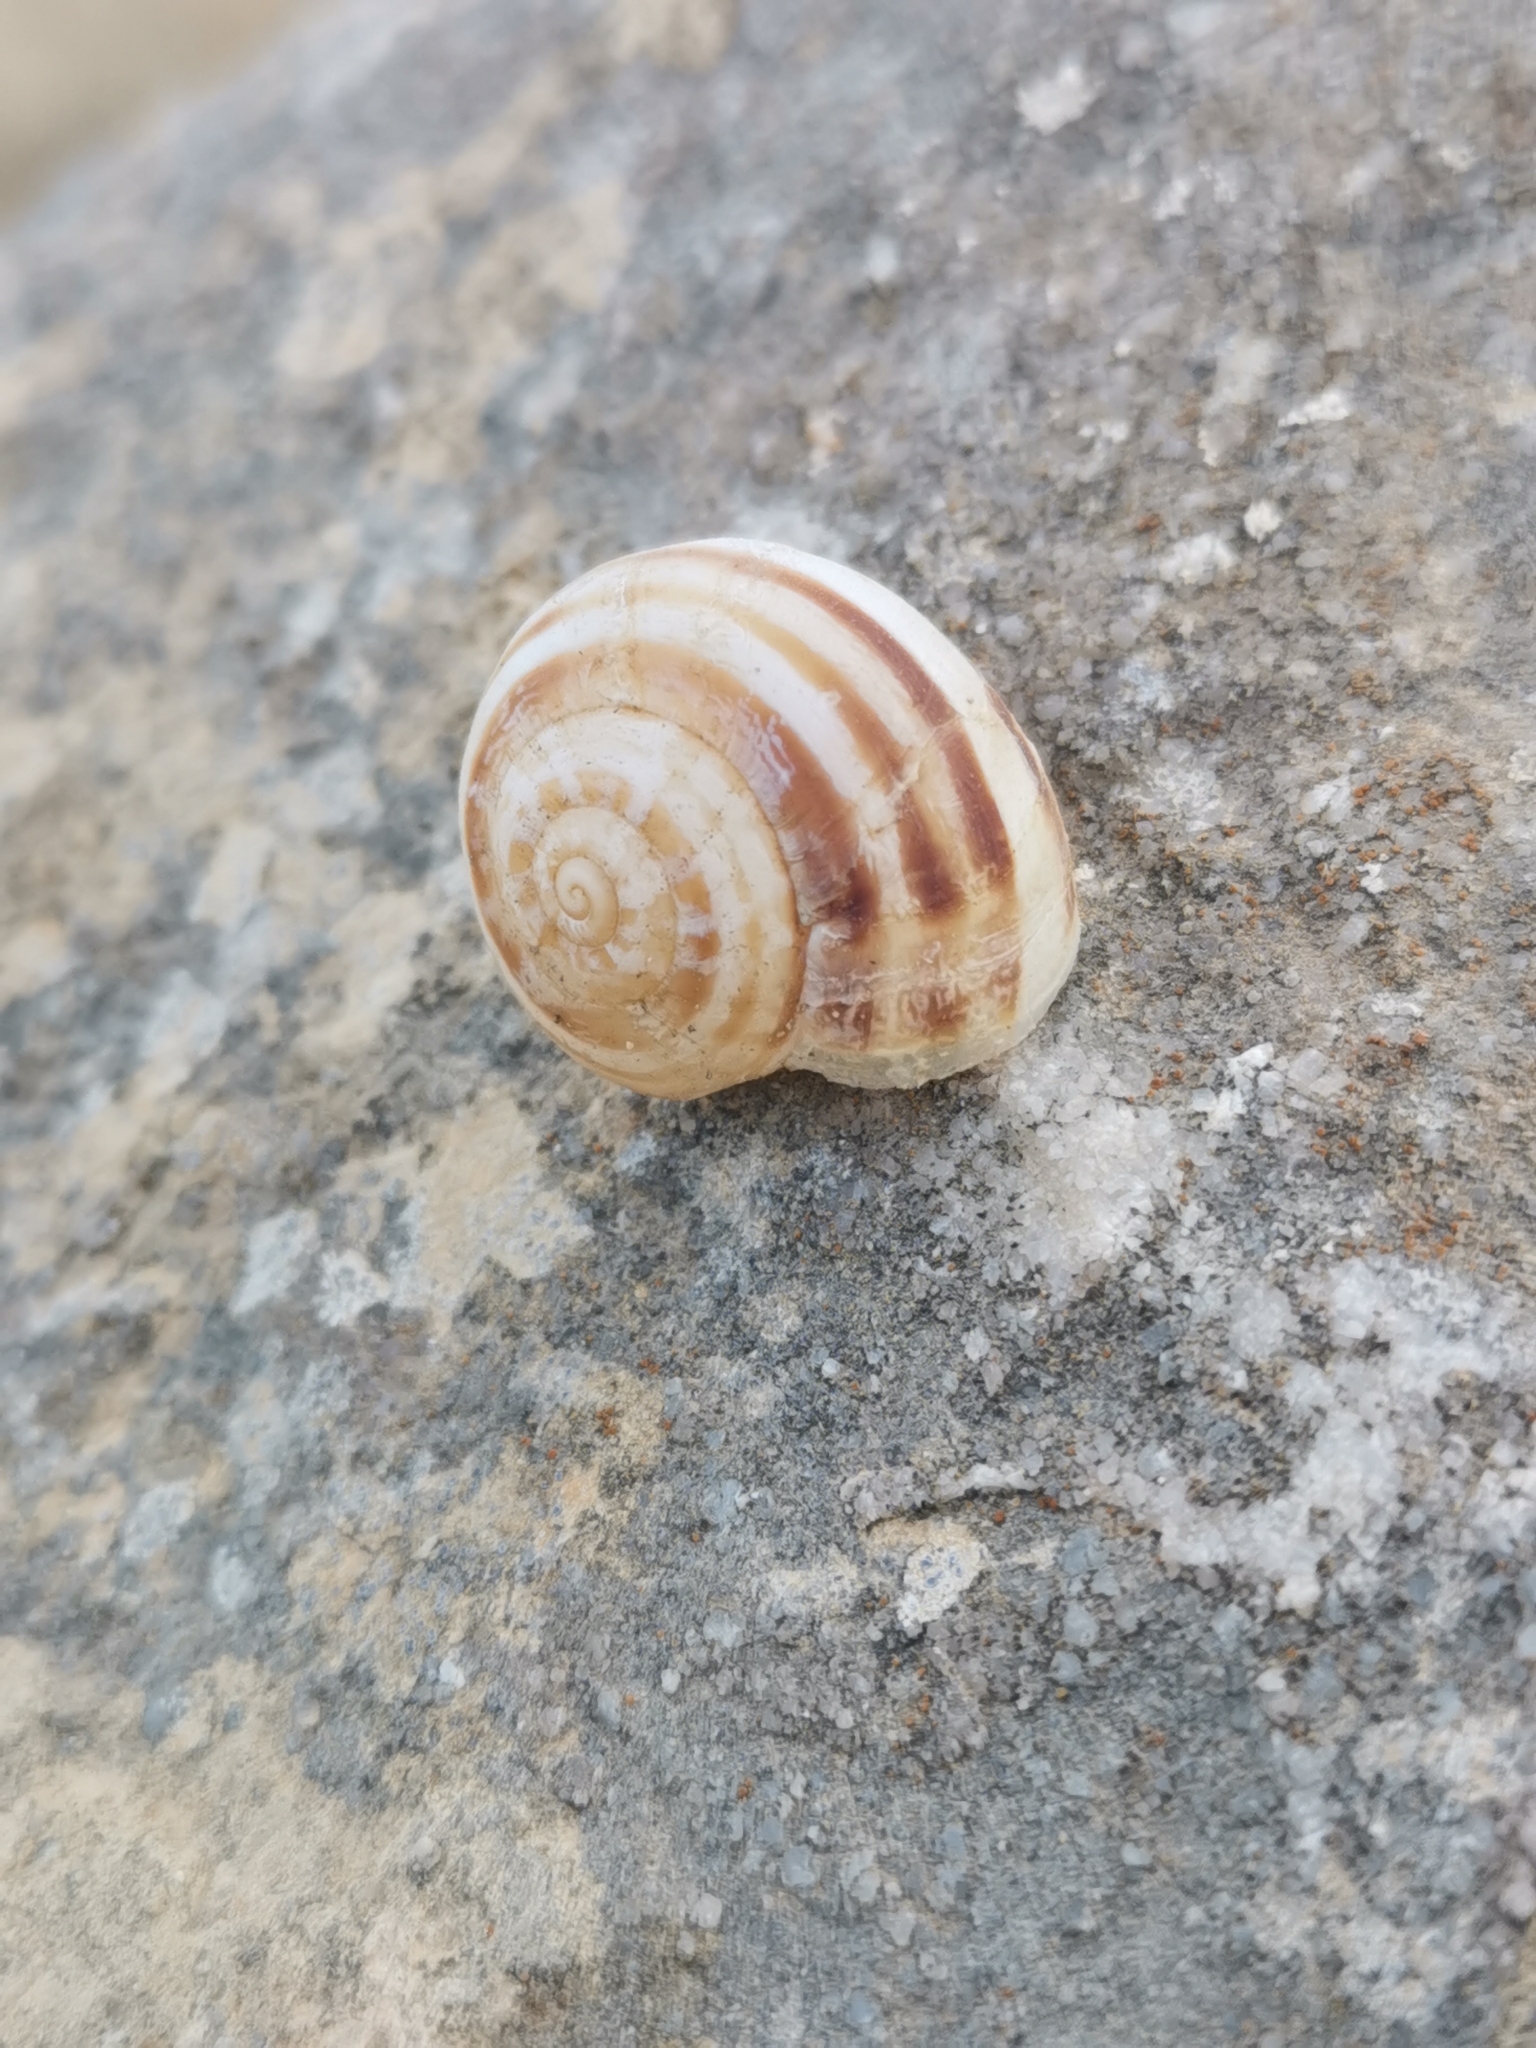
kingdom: Animalia
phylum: Mollusca
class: Gastropoda
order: Stylommatophora
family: Helicidae
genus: Eobania
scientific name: Eobania vermiculata
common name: Chocolateband snail
